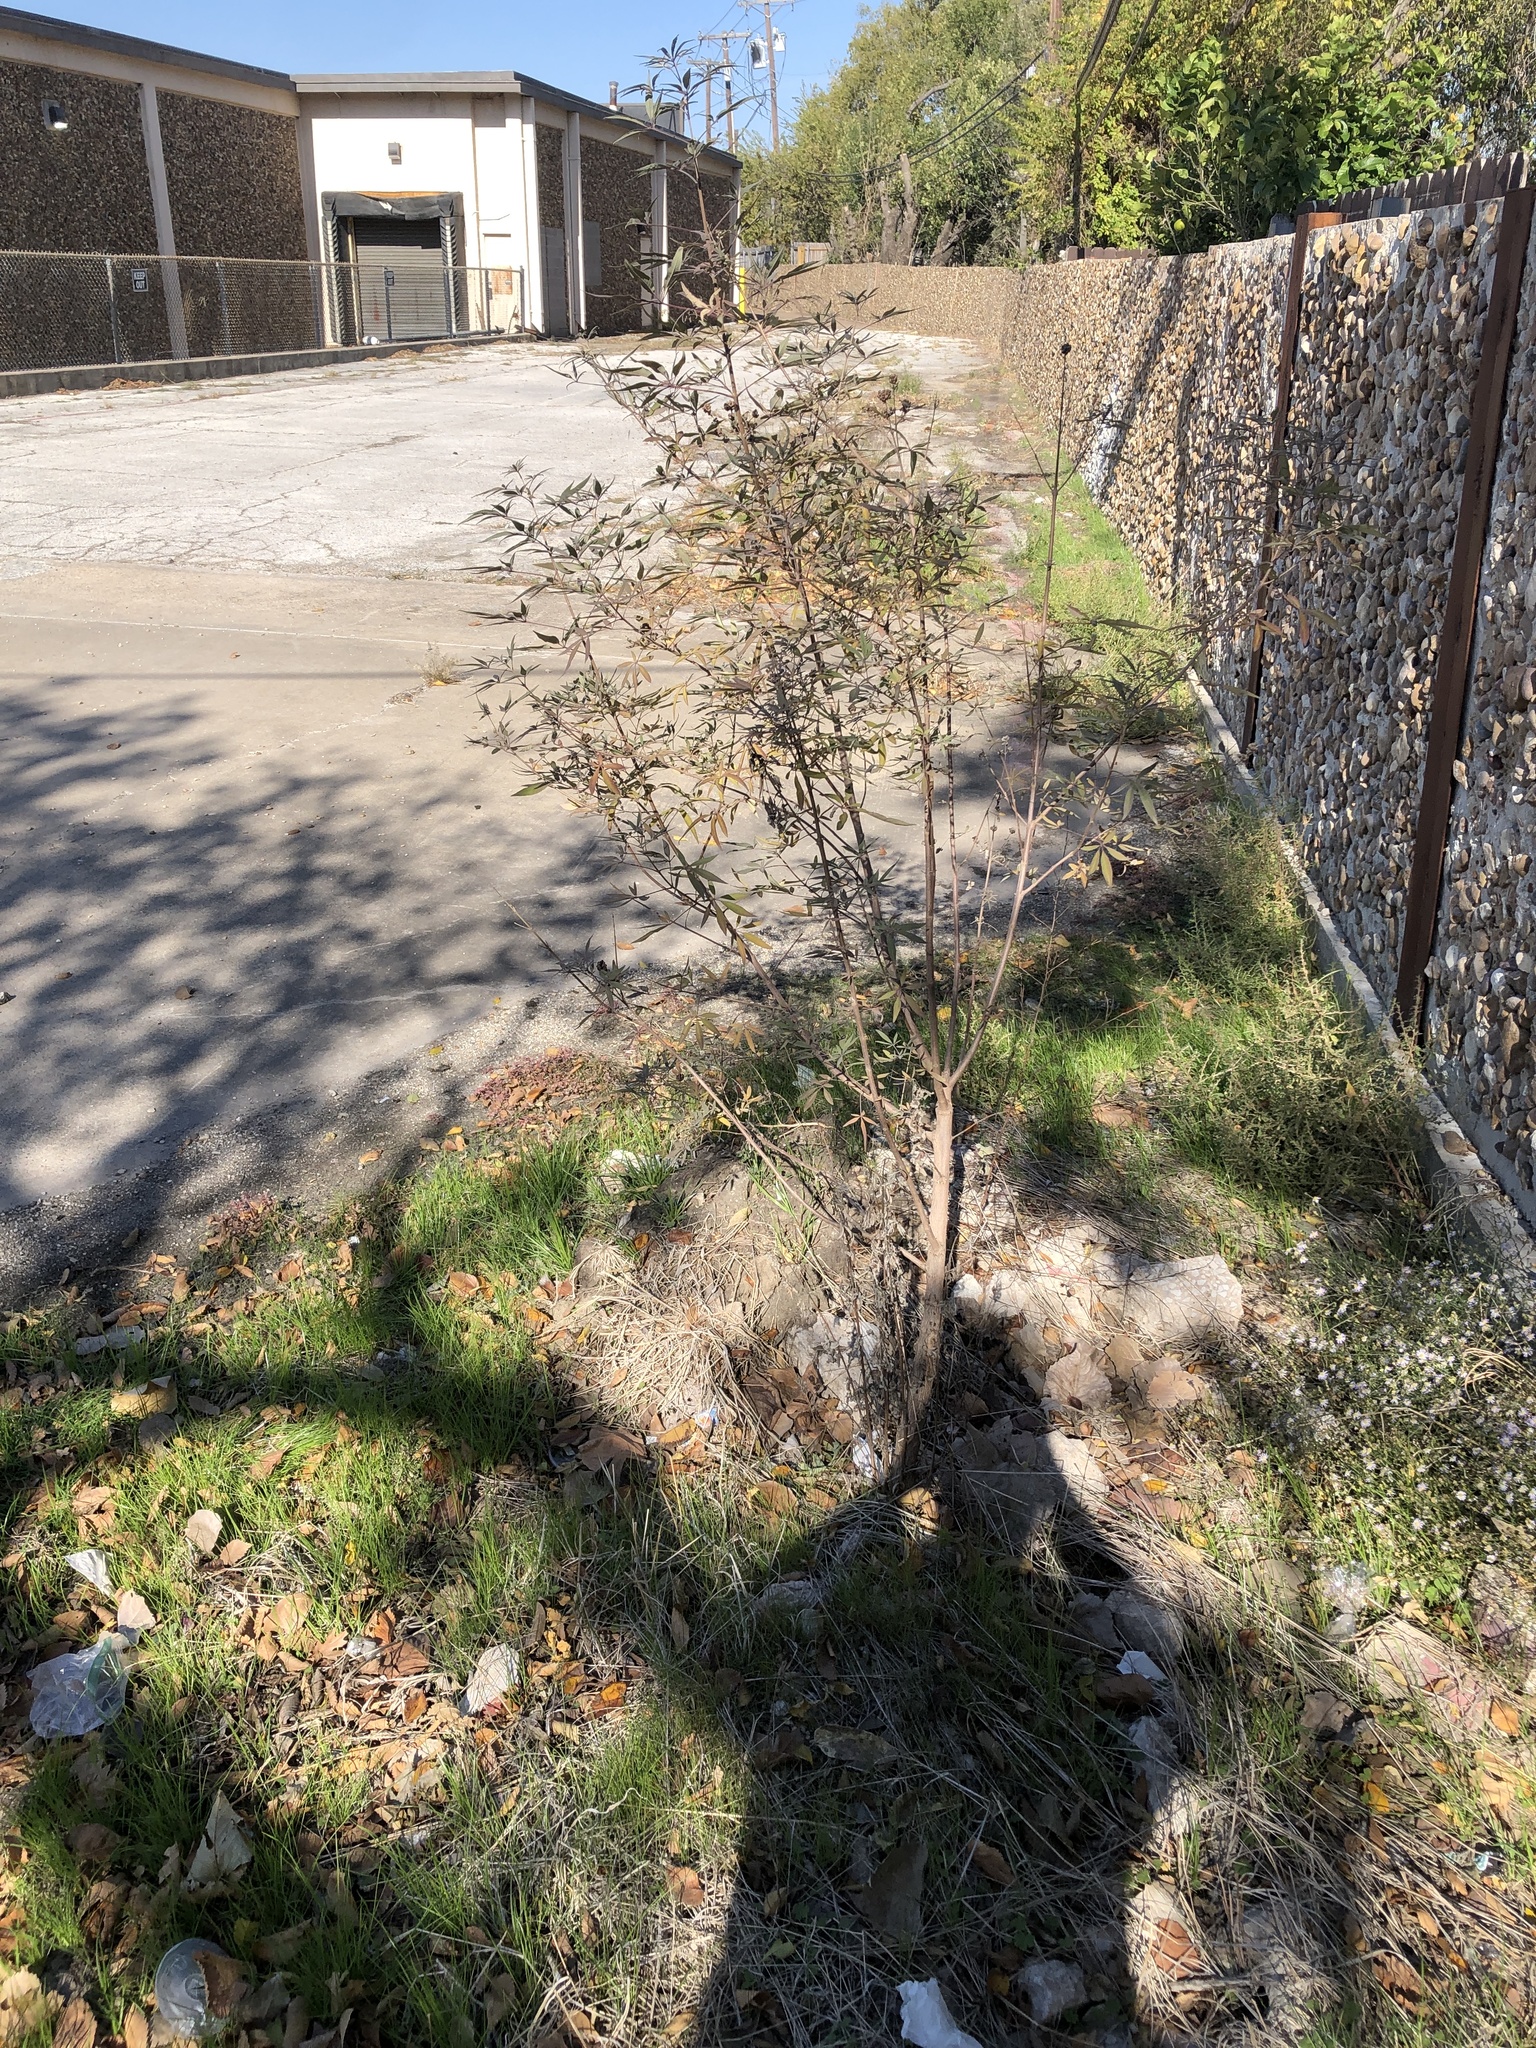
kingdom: Plantae
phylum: Tracheophyta
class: Magnoliopsida
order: Lamiales
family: Lamiaceae
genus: Vitex
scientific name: Vitex agnus-castus
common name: Chasteberry
